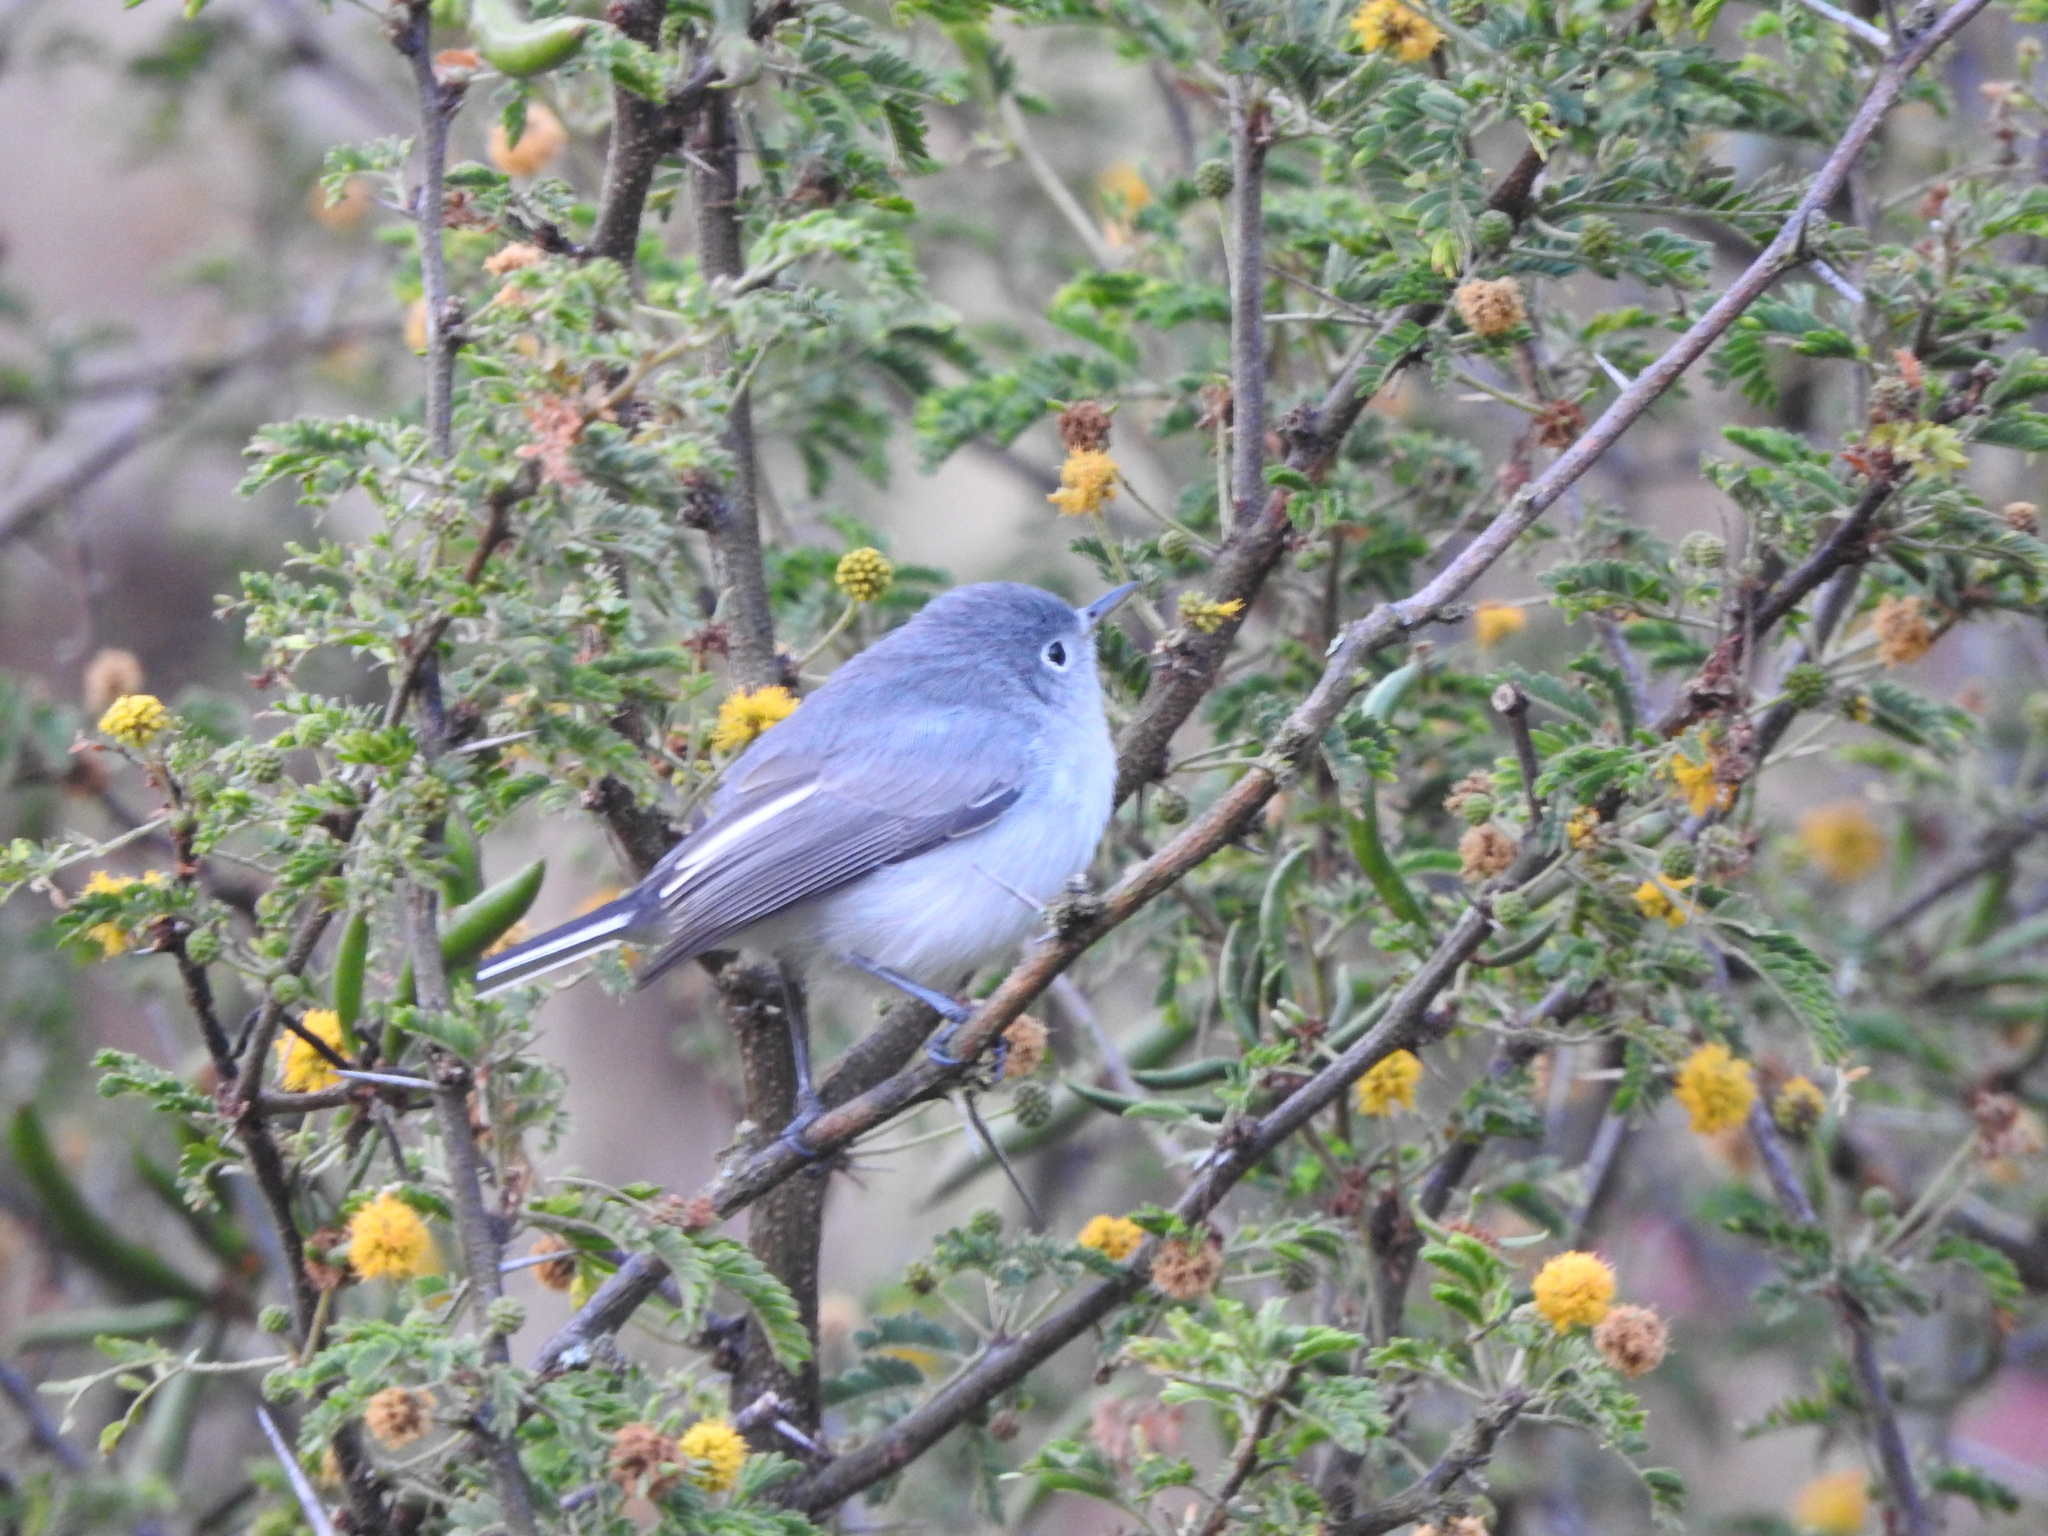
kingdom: Animalia
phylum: Chordata
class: Aves
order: Passeriformes
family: Polioptilidae
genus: Polioptila
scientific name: Polioptila caerulea
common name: Blue-gray gnatcatcher
